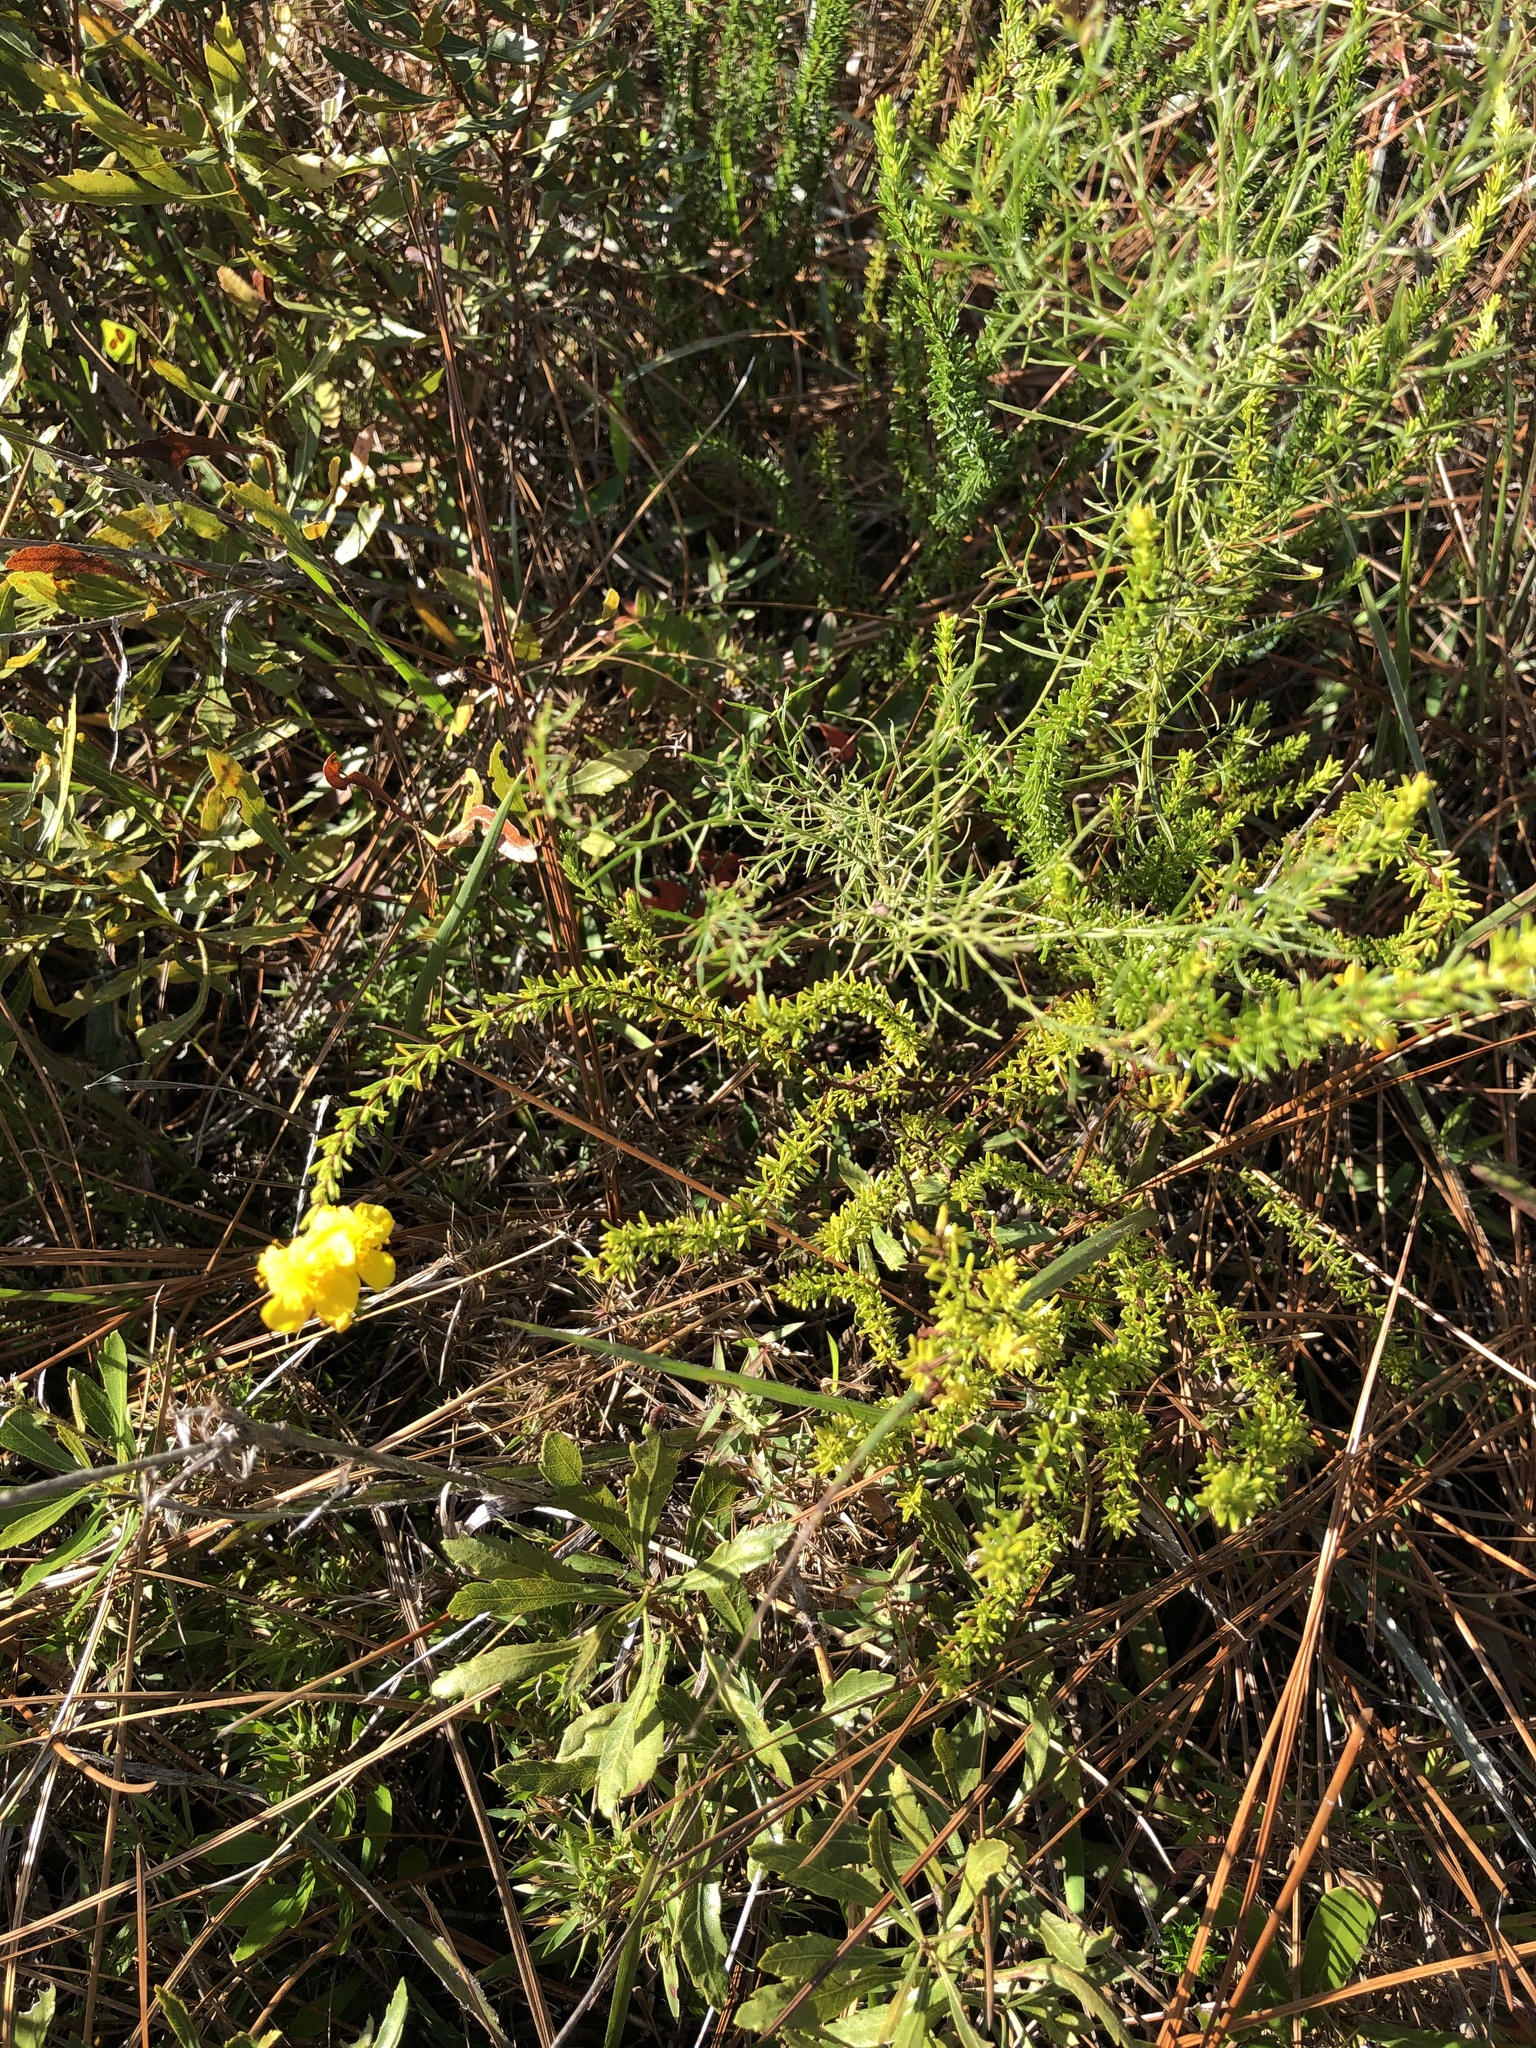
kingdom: Plantae
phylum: Tracheophyta
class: Magnoliopsida
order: Malpighiales
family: Hypericaceae
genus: Hypericum
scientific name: Hypericum tenuifolium
